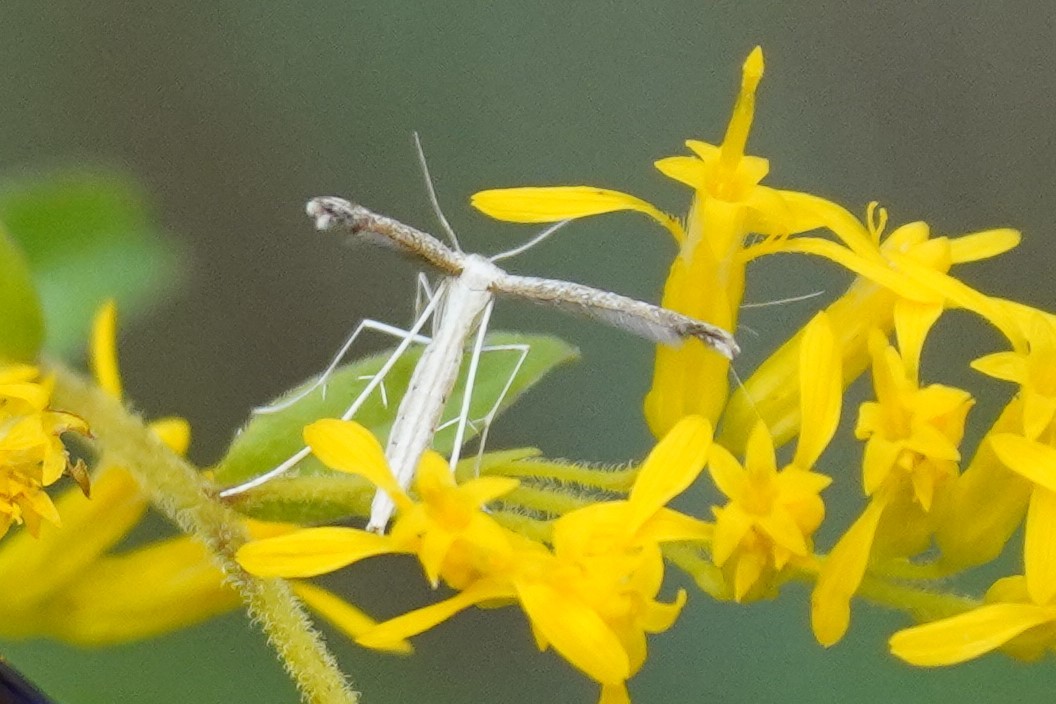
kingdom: Animalia
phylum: Arthropoda
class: Insecta
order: Lepidoptera
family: Pterophoridae
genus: Lioptilodes
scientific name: Lioptilodes albistriolatus
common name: Moth
